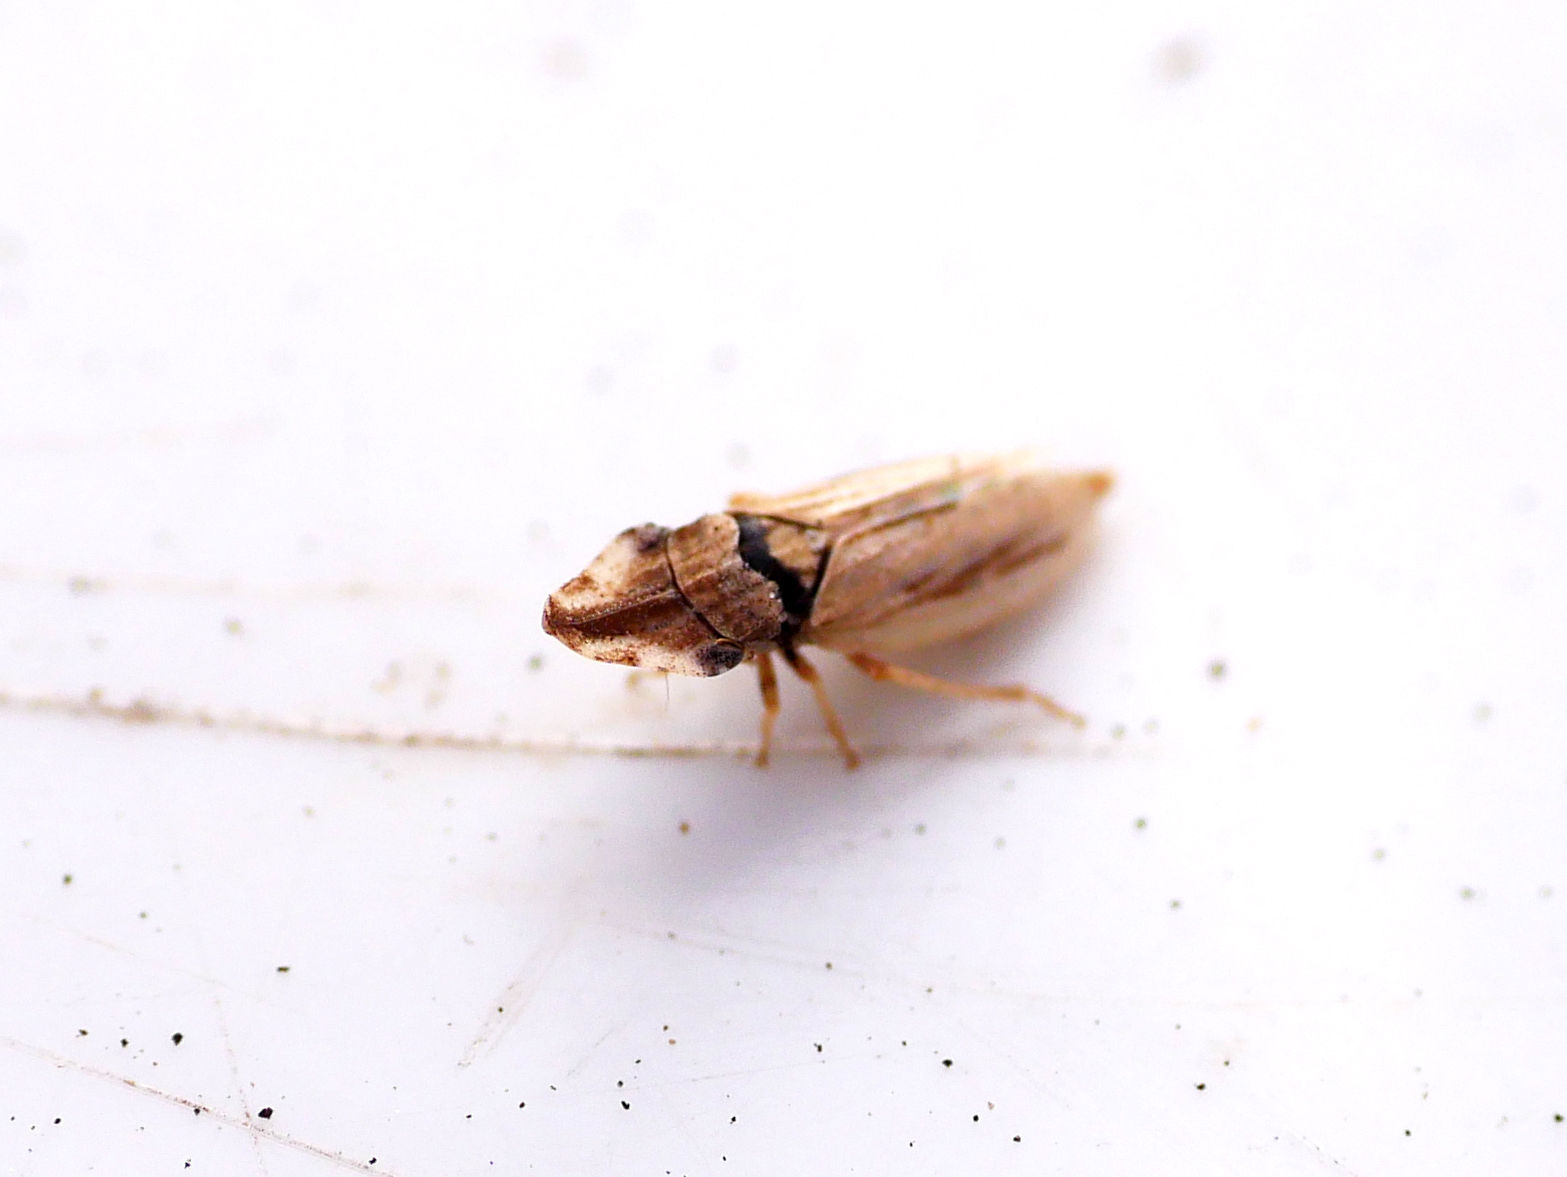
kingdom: Animalia
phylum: Arthropoda
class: Insecta
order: Hemiptera
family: Cicadellidae
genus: Eupelix
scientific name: Eupelix cuspidata
